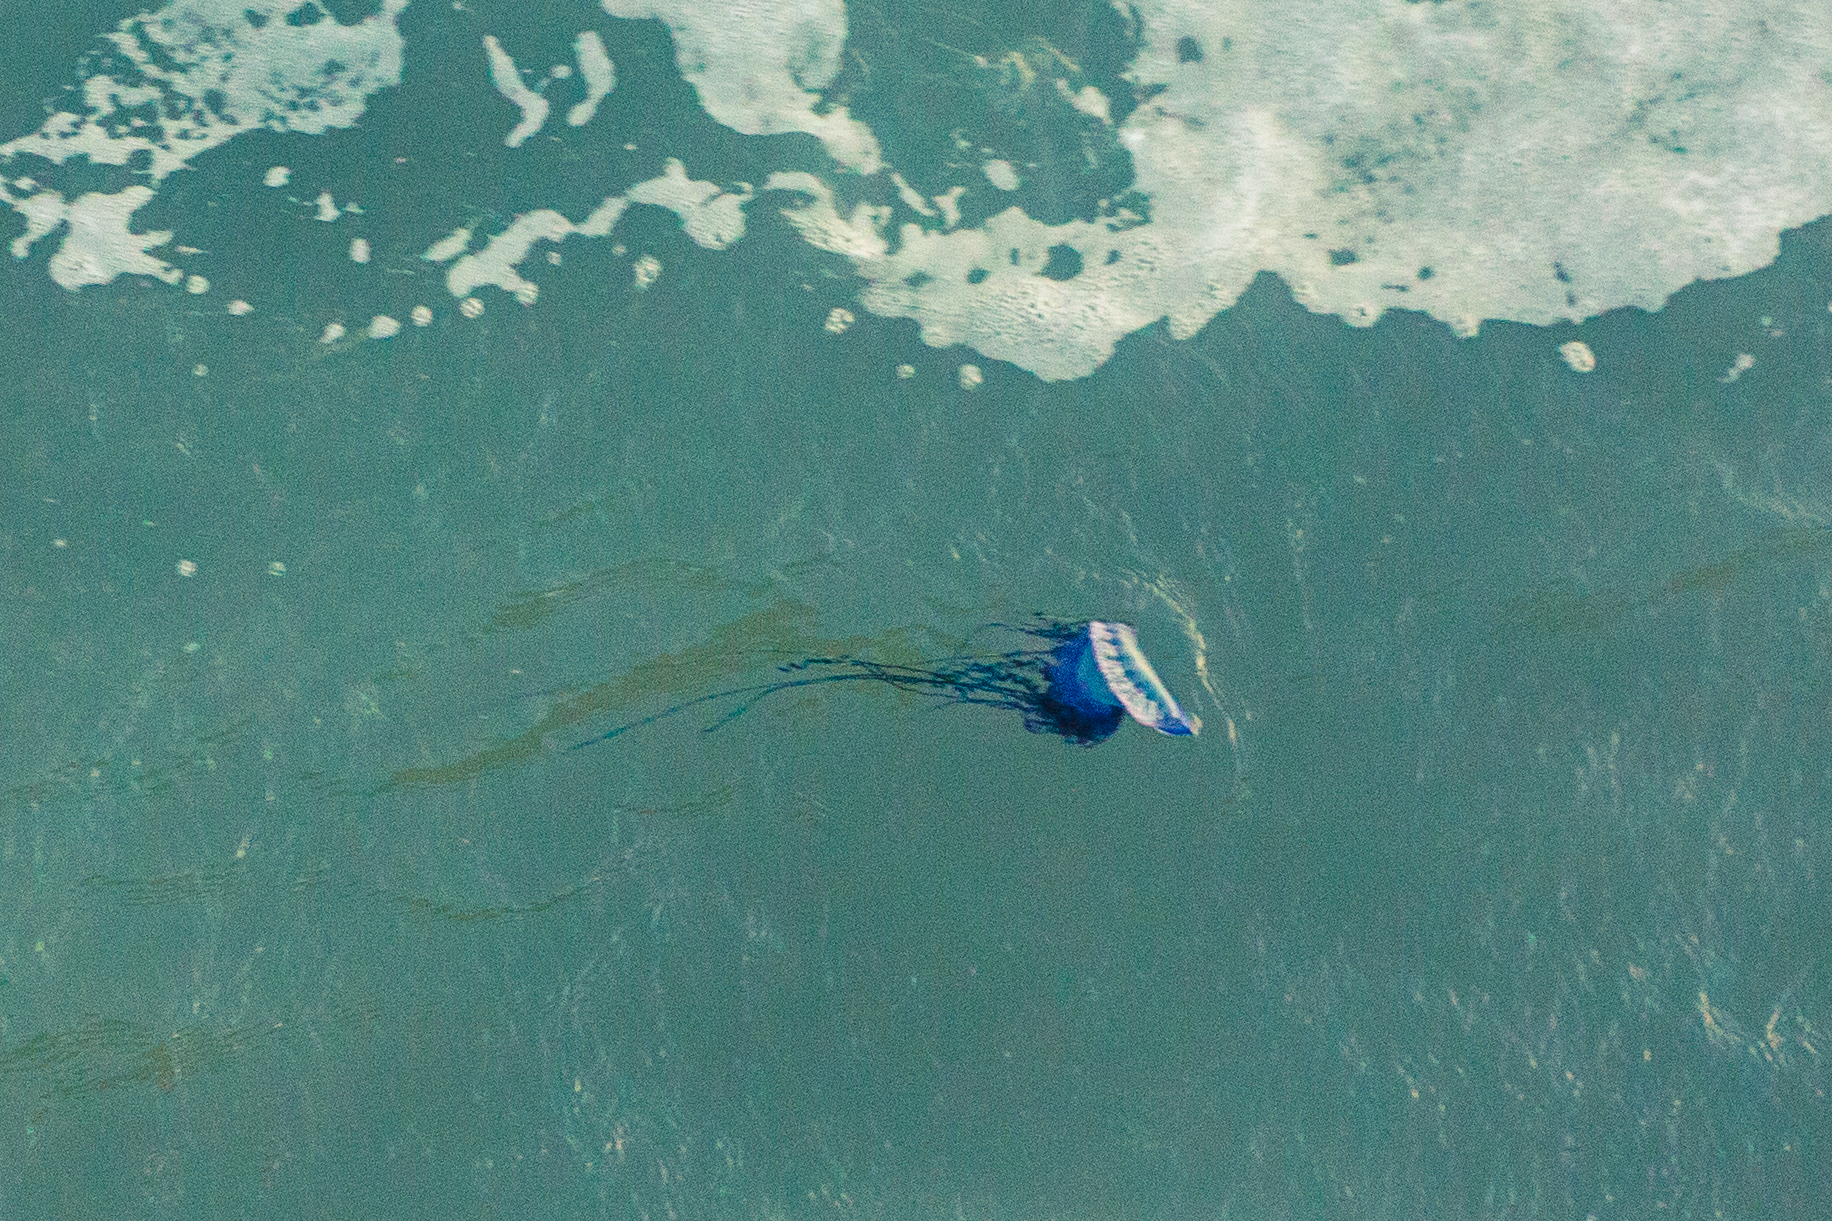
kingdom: Animalia
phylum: Cnidaria
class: Hydrozoa
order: Siphonophorae
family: Physaliidae
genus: Physalia
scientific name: Physalia physalis
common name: Portuguese man-of-war
